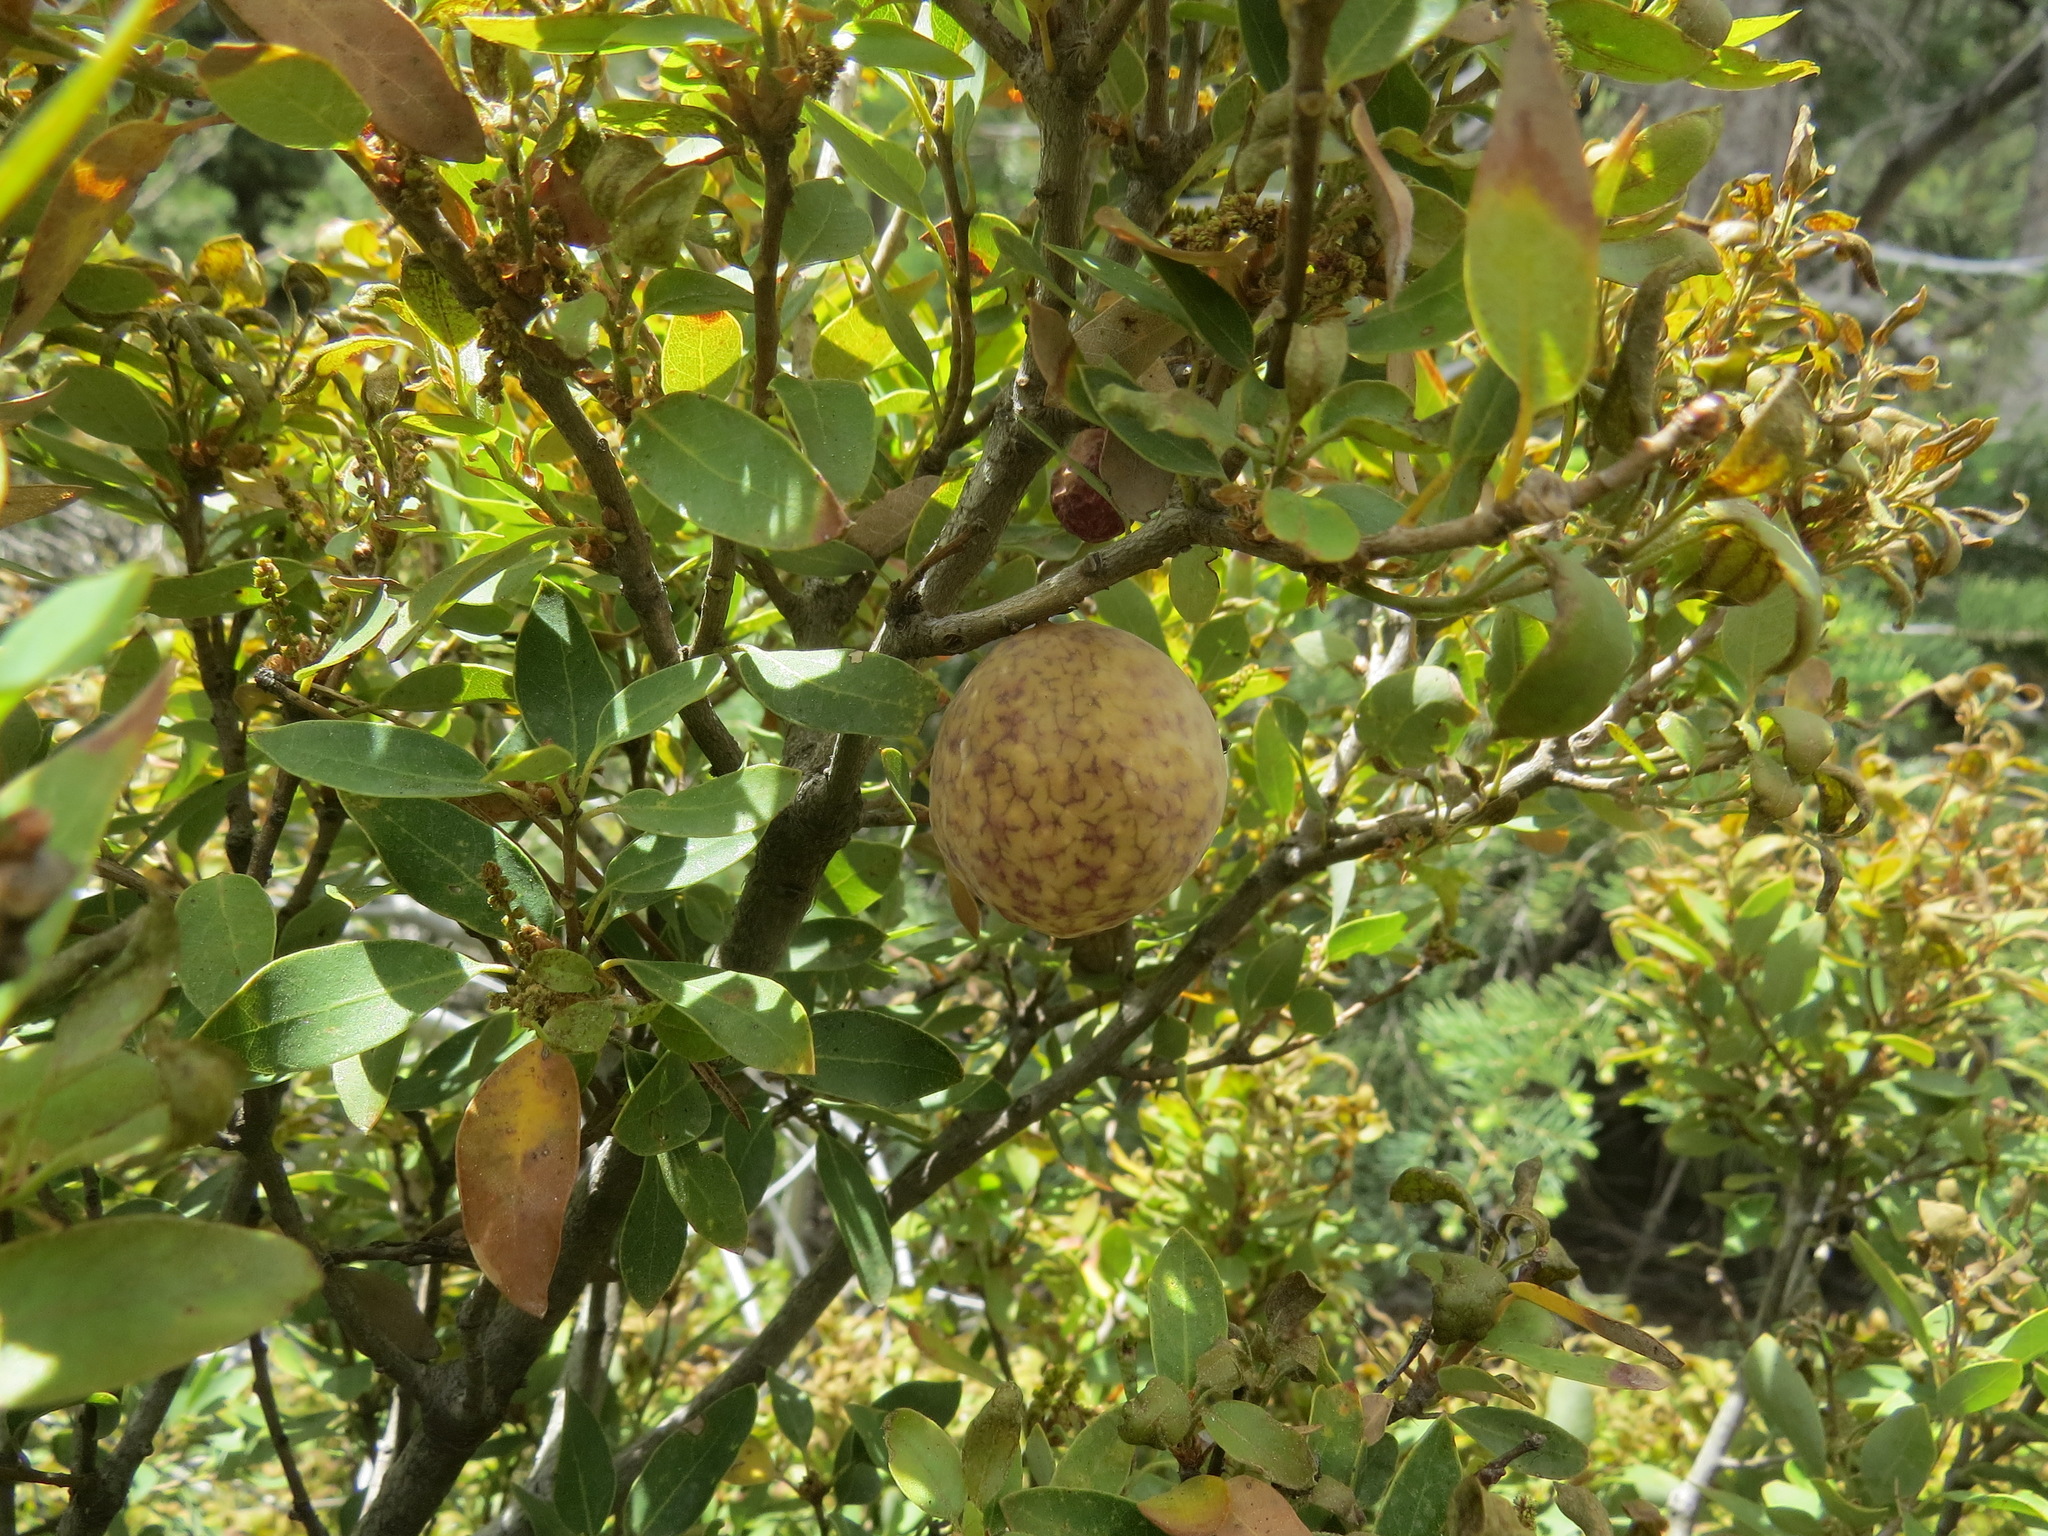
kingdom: Animalia
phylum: Arthropoda
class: Insecta
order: Hymenoptera
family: Cynipidae
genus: Andricus
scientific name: Andricus
